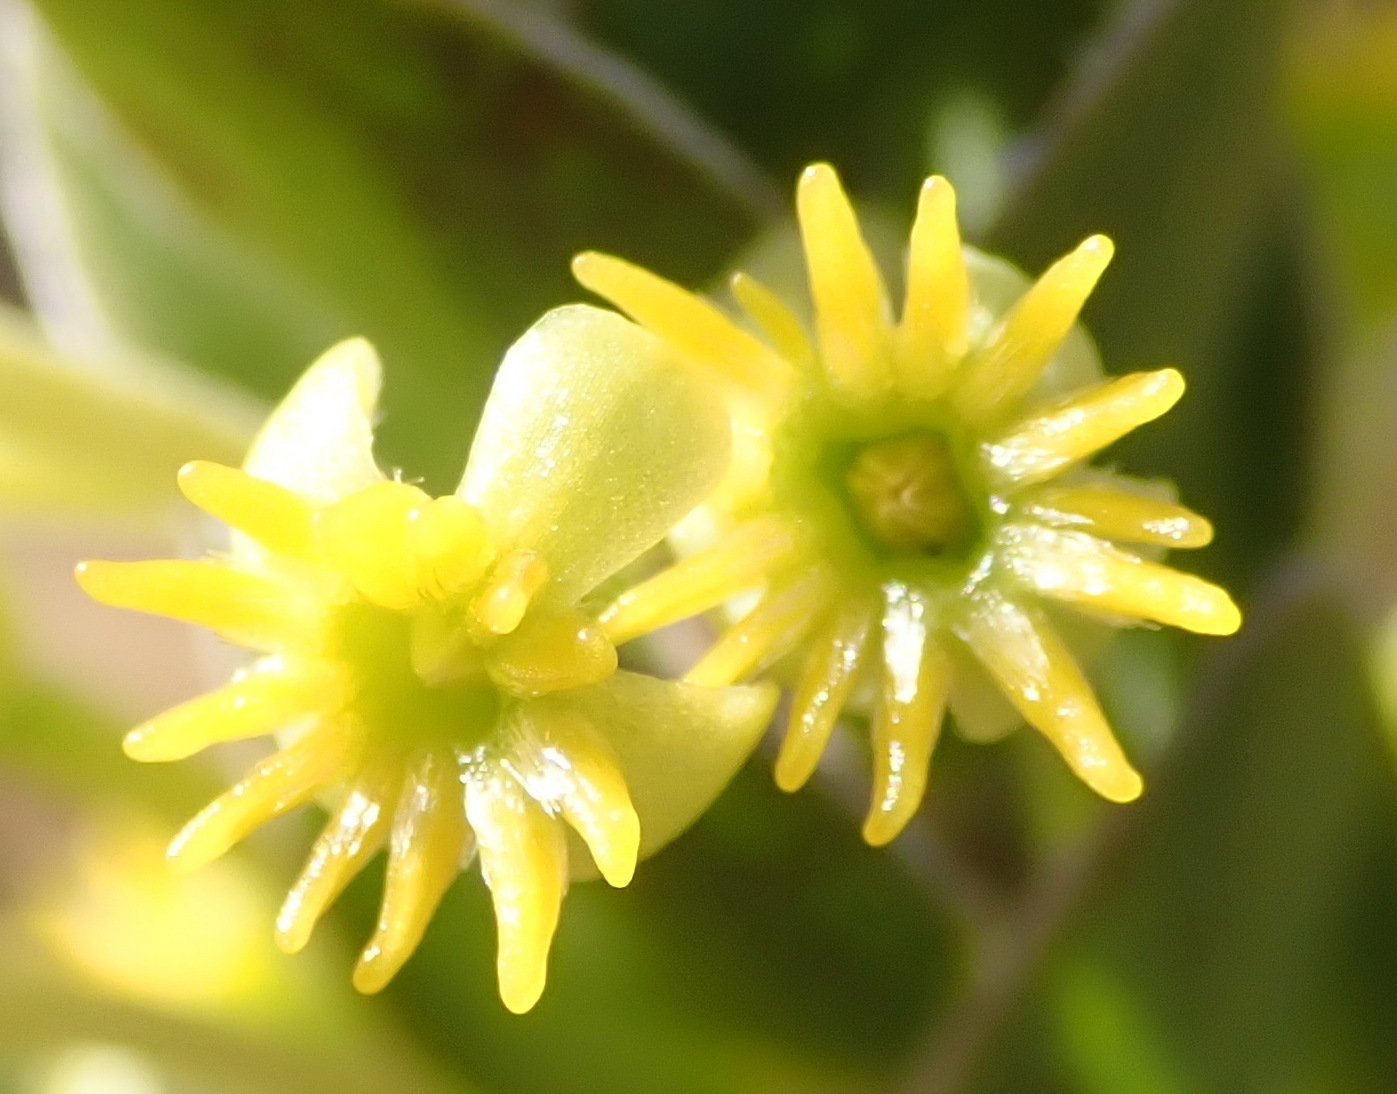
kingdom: Plantae
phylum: Tracheophyta
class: Magnoliopsida
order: Malvales
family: Thymelaeaceae
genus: Struthiola
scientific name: Struthiola argentea
